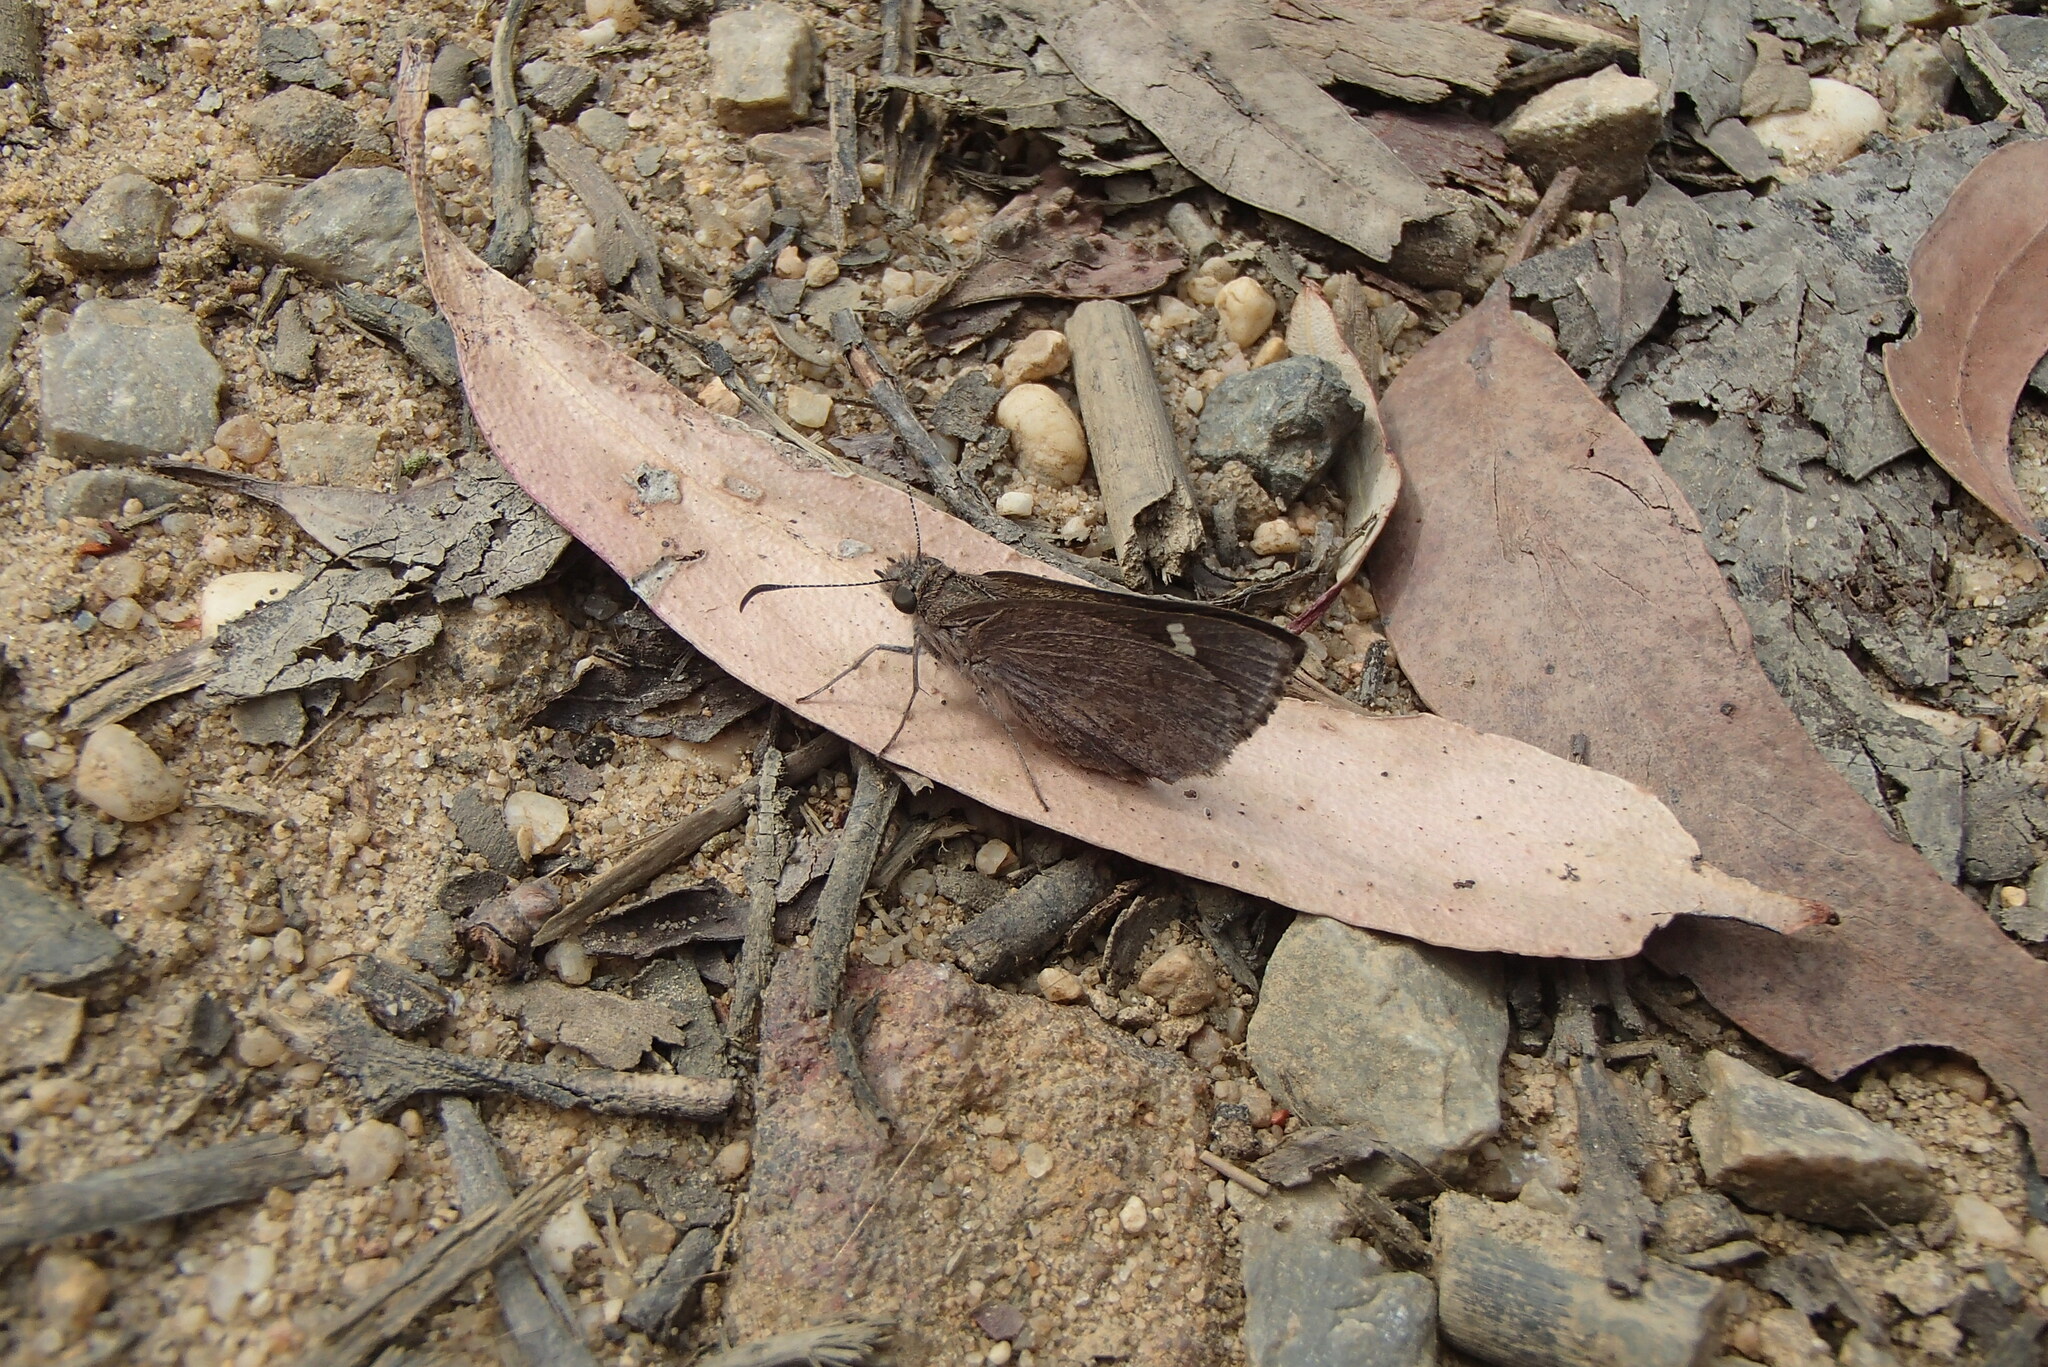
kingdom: Animalia
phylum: Arthropoda
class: Insecta
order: Lepidoptera
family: Hesperiidae
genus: Mesodina
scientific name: Mesodina halyzia
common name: Eastern iris-skipper
